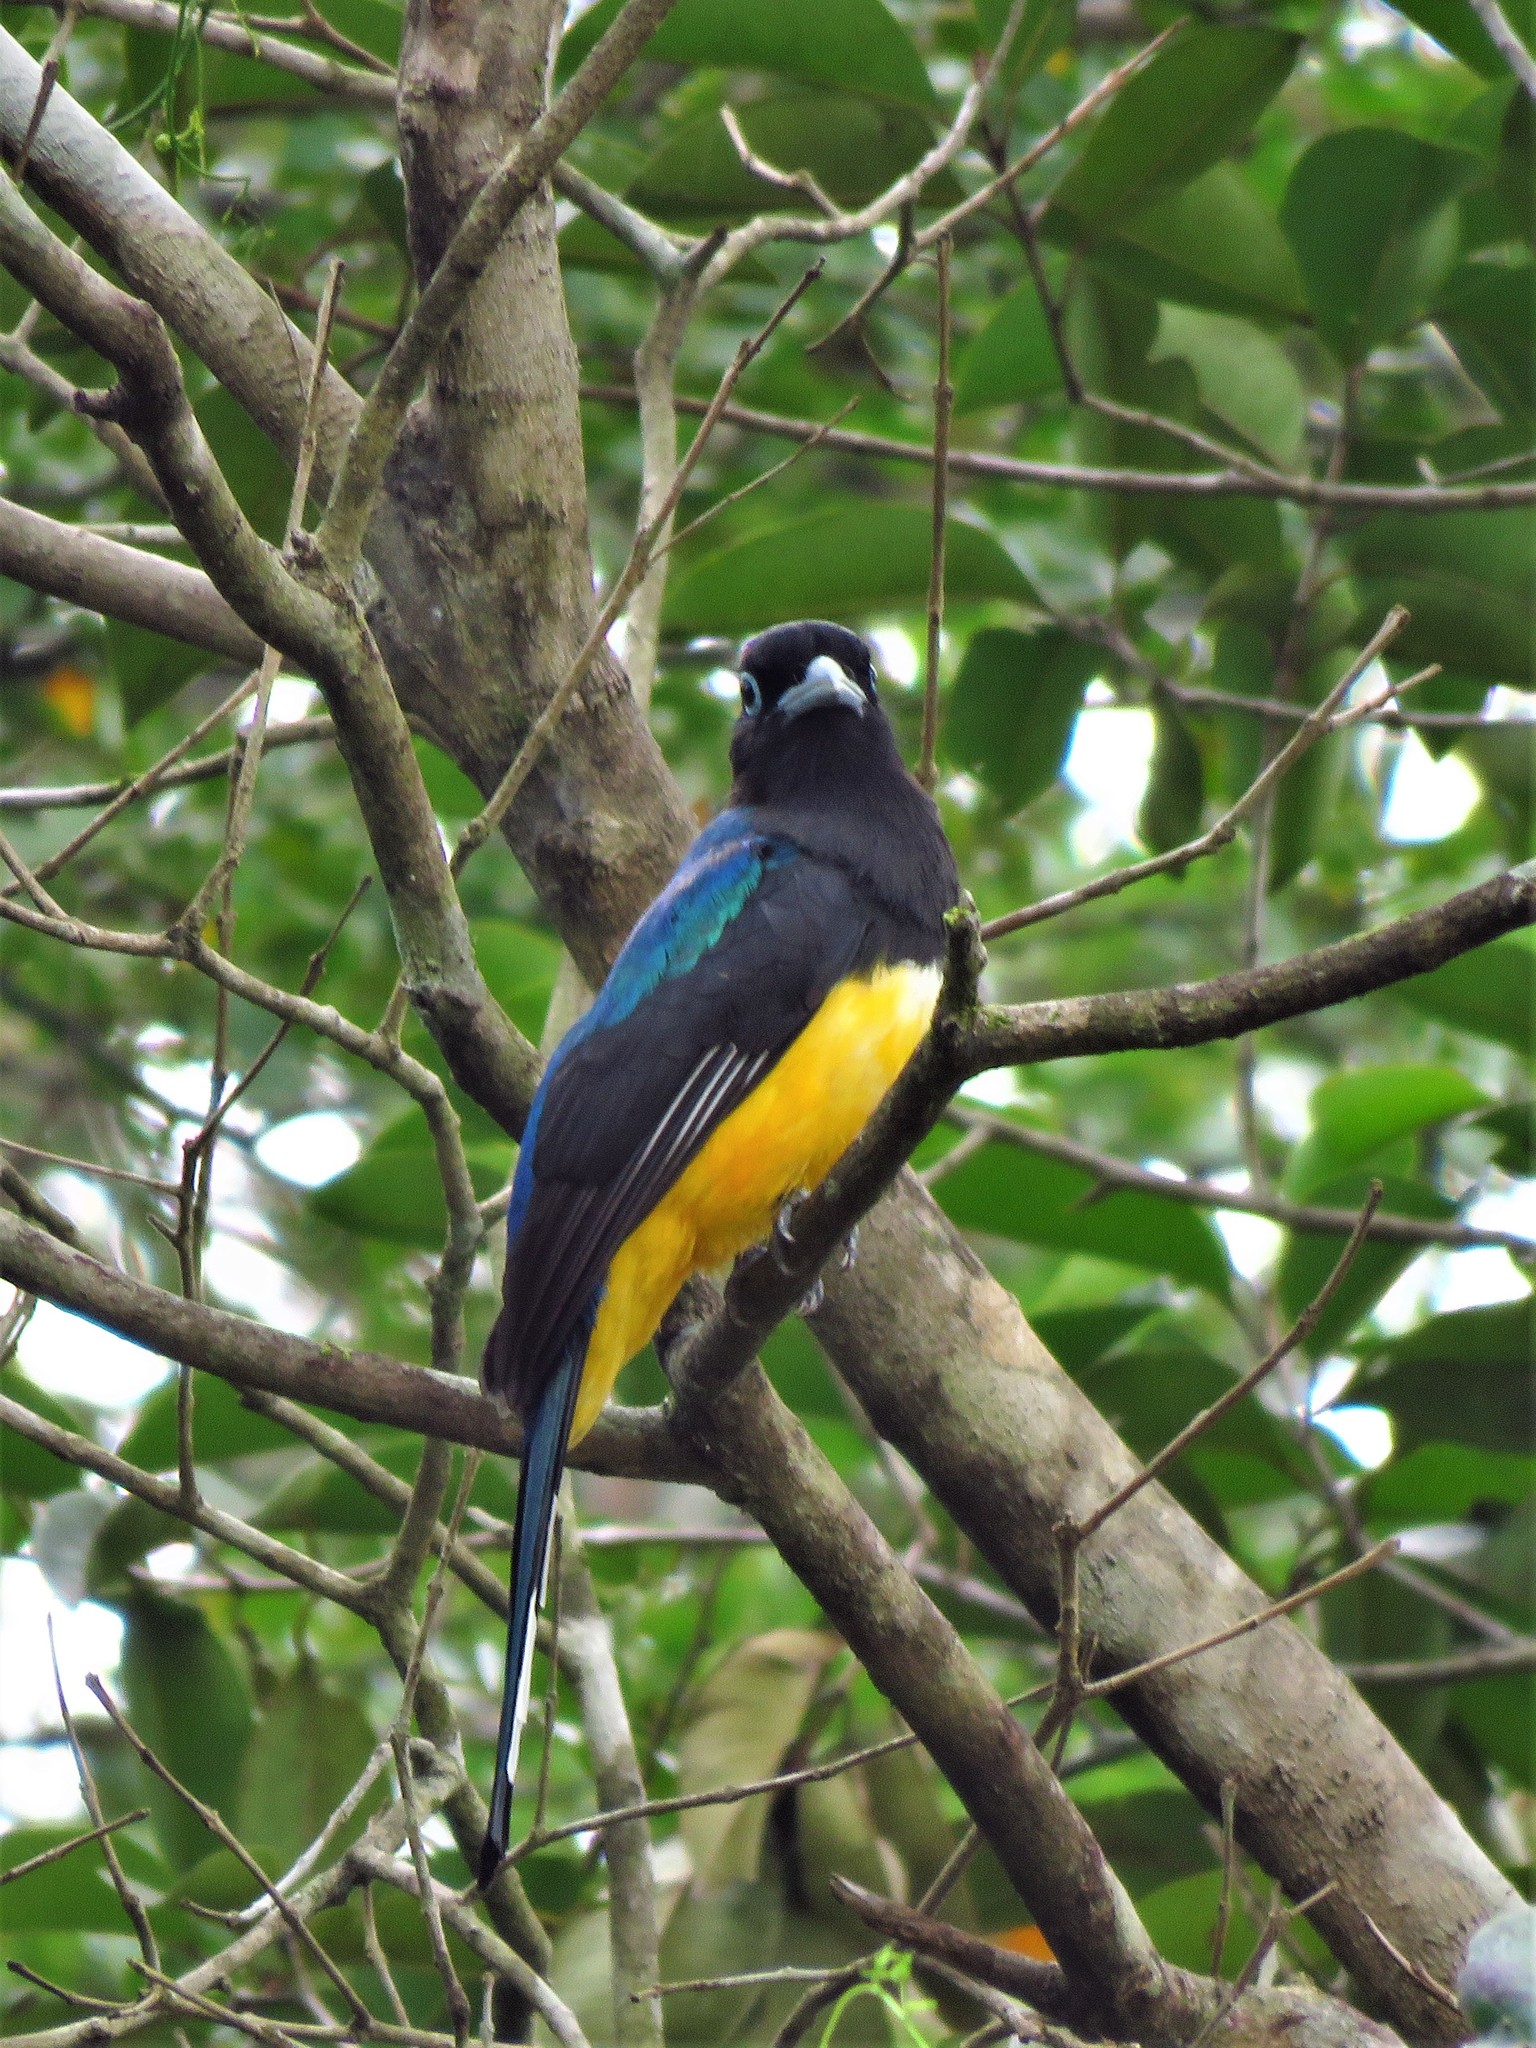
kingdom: Animalia
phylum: Chordata
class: Aves
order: Trogoniformes
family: Trogonidae
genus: Trogon
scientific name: Trogon melanocephalus
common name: Black-headed trogon
